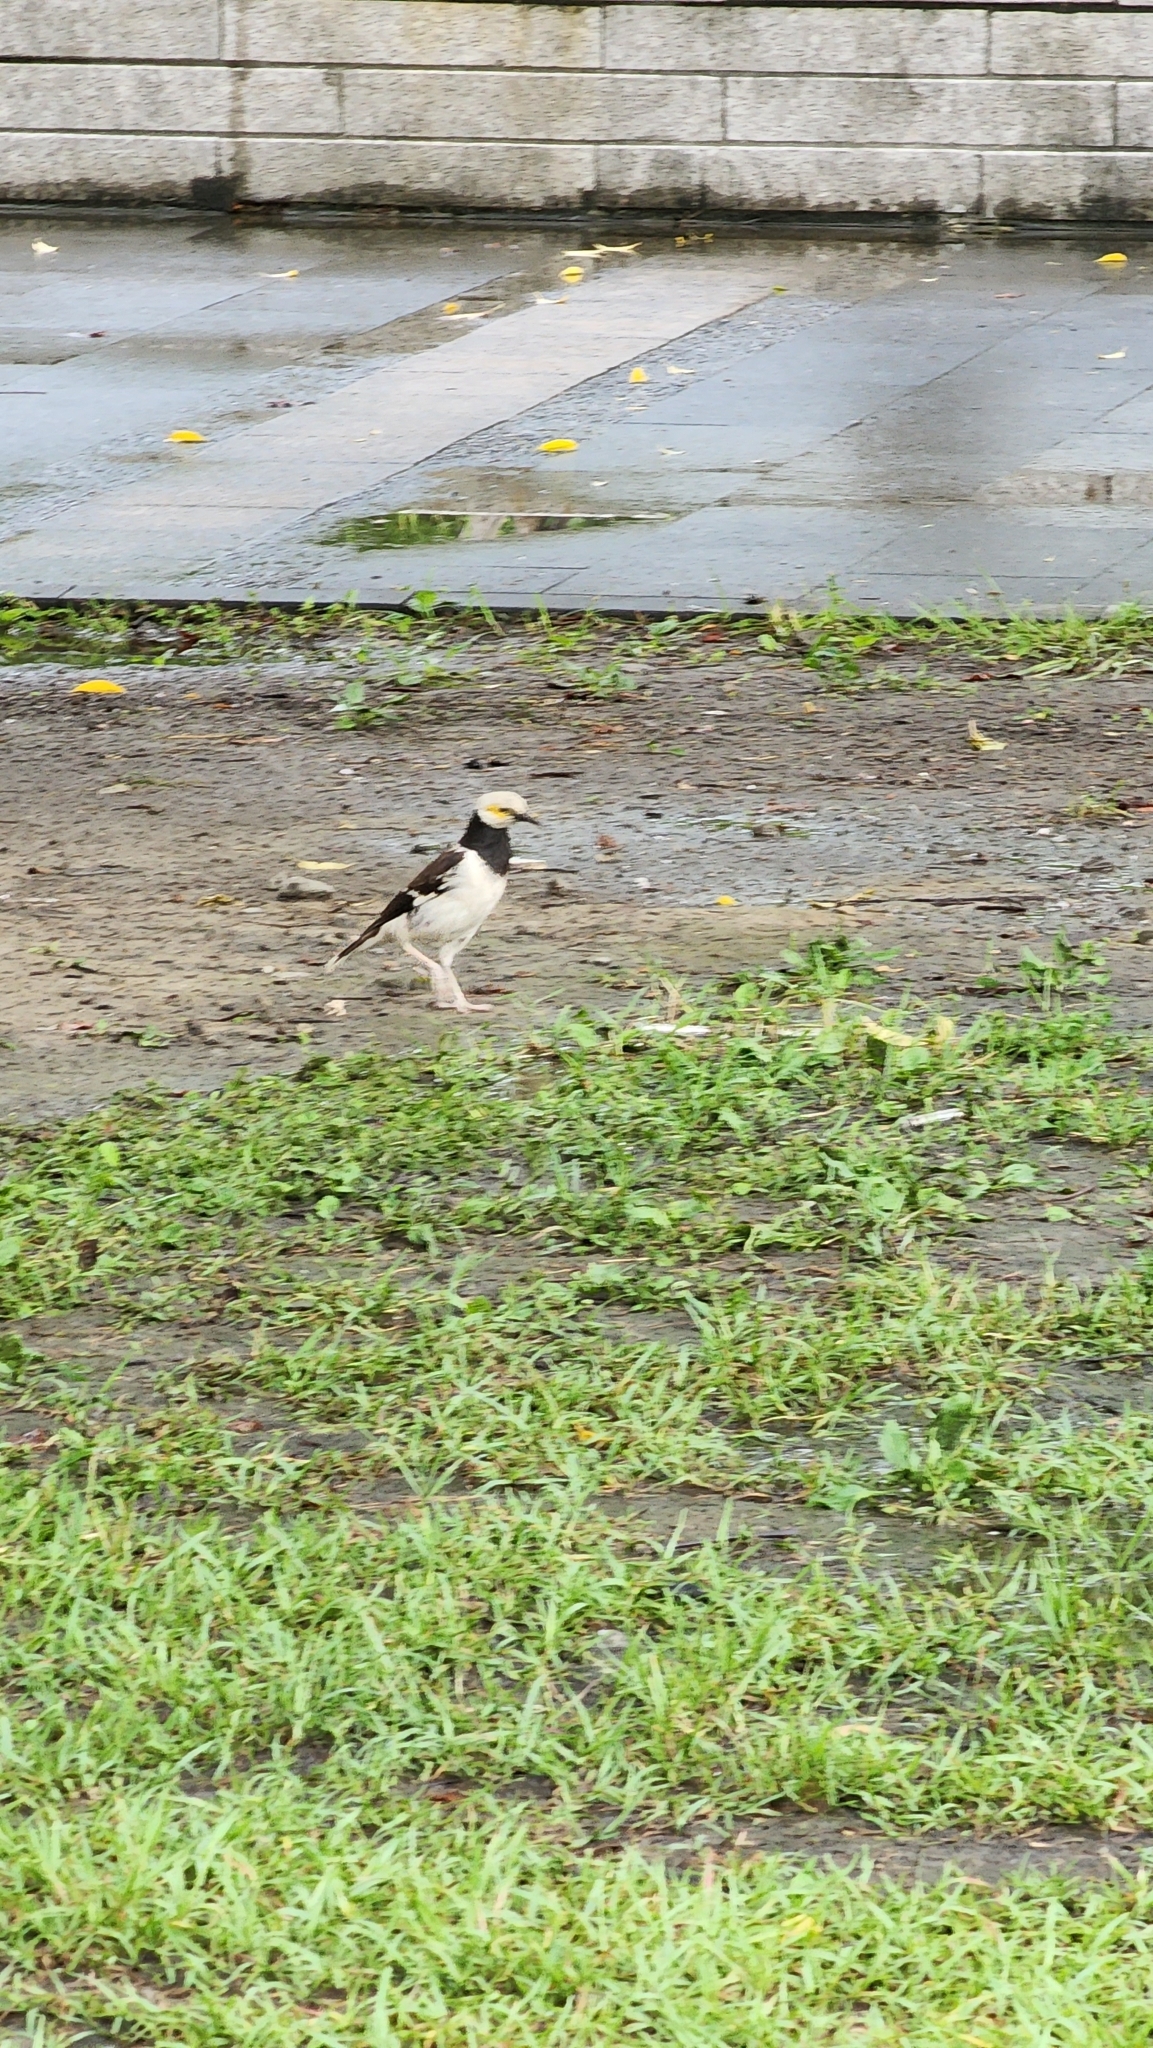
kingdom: Animalia
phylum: Chordata
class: Aves
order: Passeriformes
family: Sturnidae
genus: Gracupica
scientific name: Gracupica nigricollis
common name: Black-collared starling
